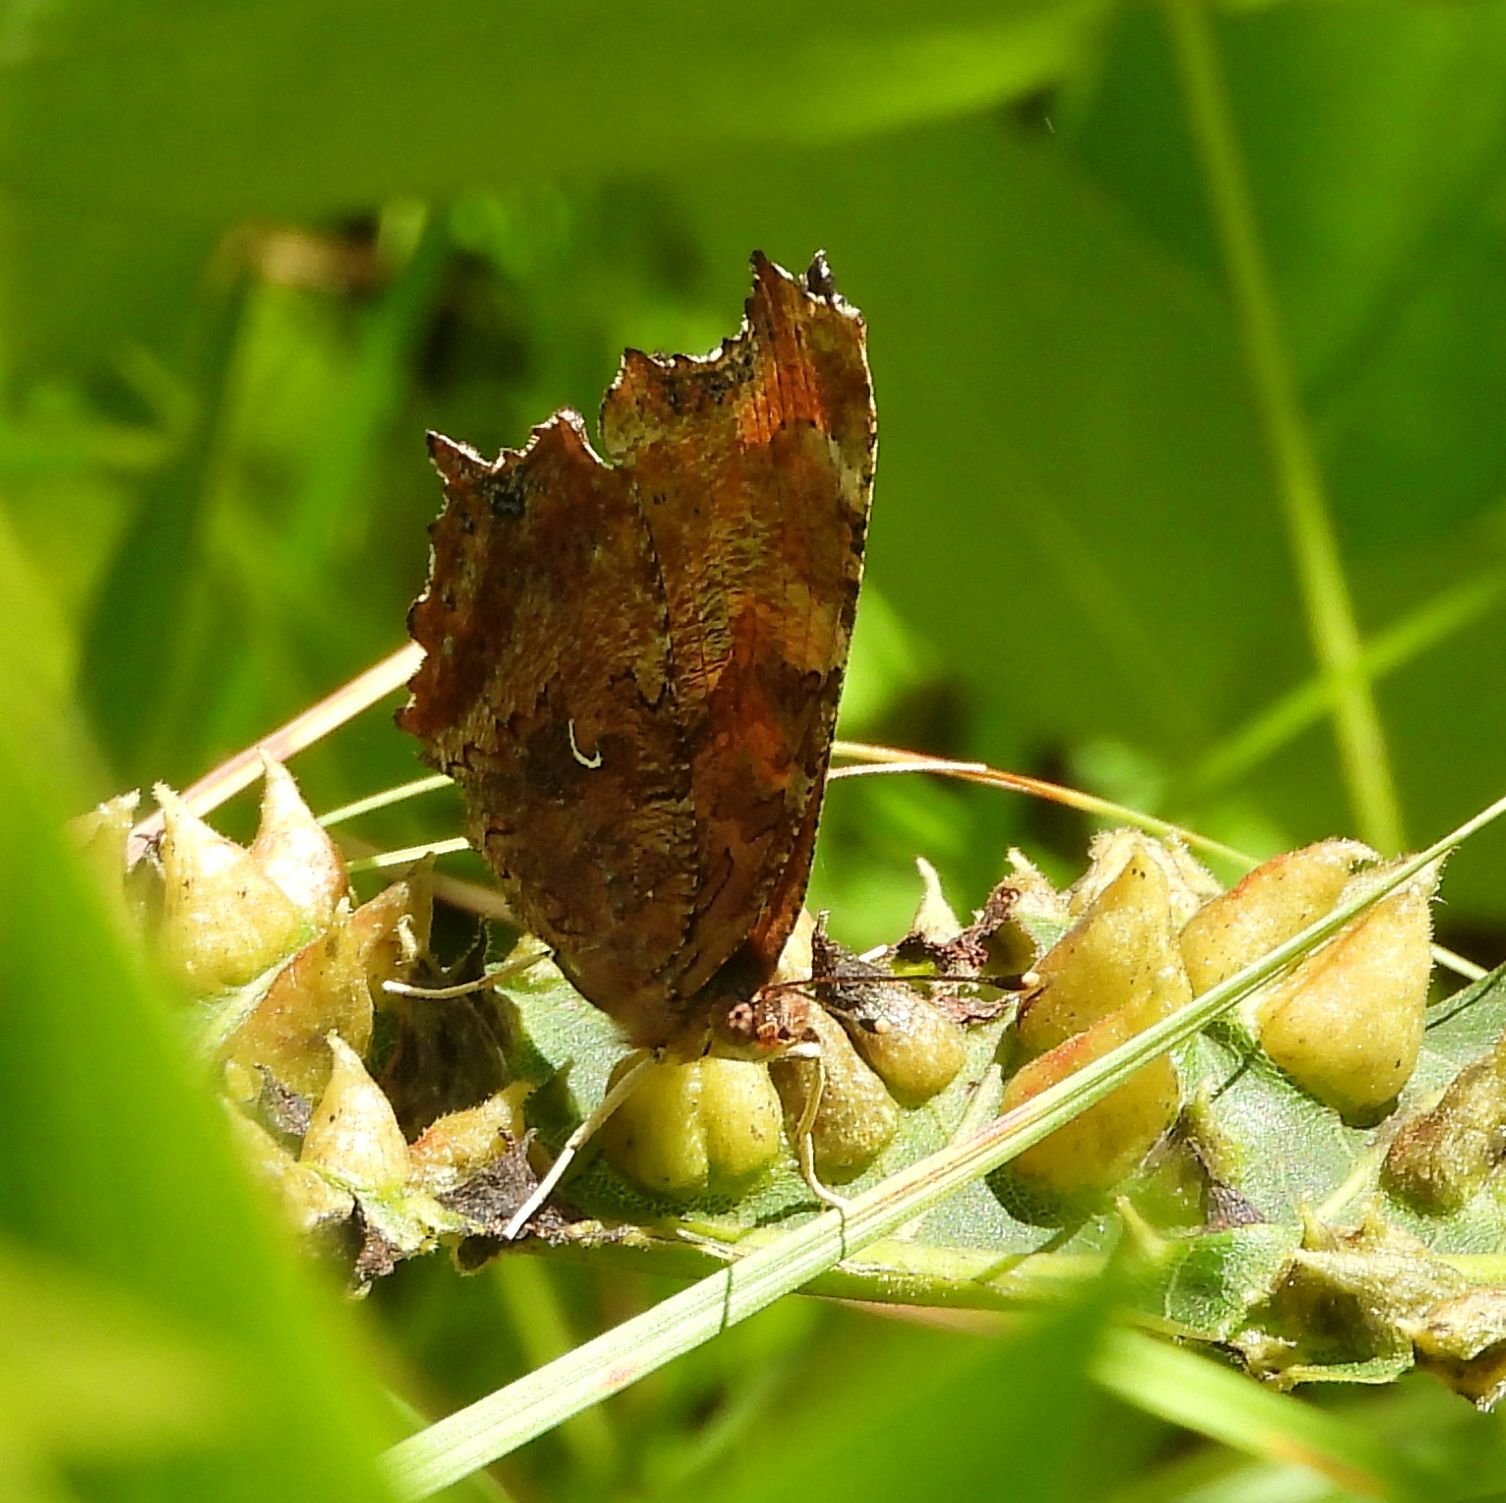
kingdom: Animalia
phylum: Arthropoda
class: Insecta
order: Lepidoptera
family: Nymphalidae
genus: Polygonia
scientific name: Polygonia comma
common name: Eastern comma
